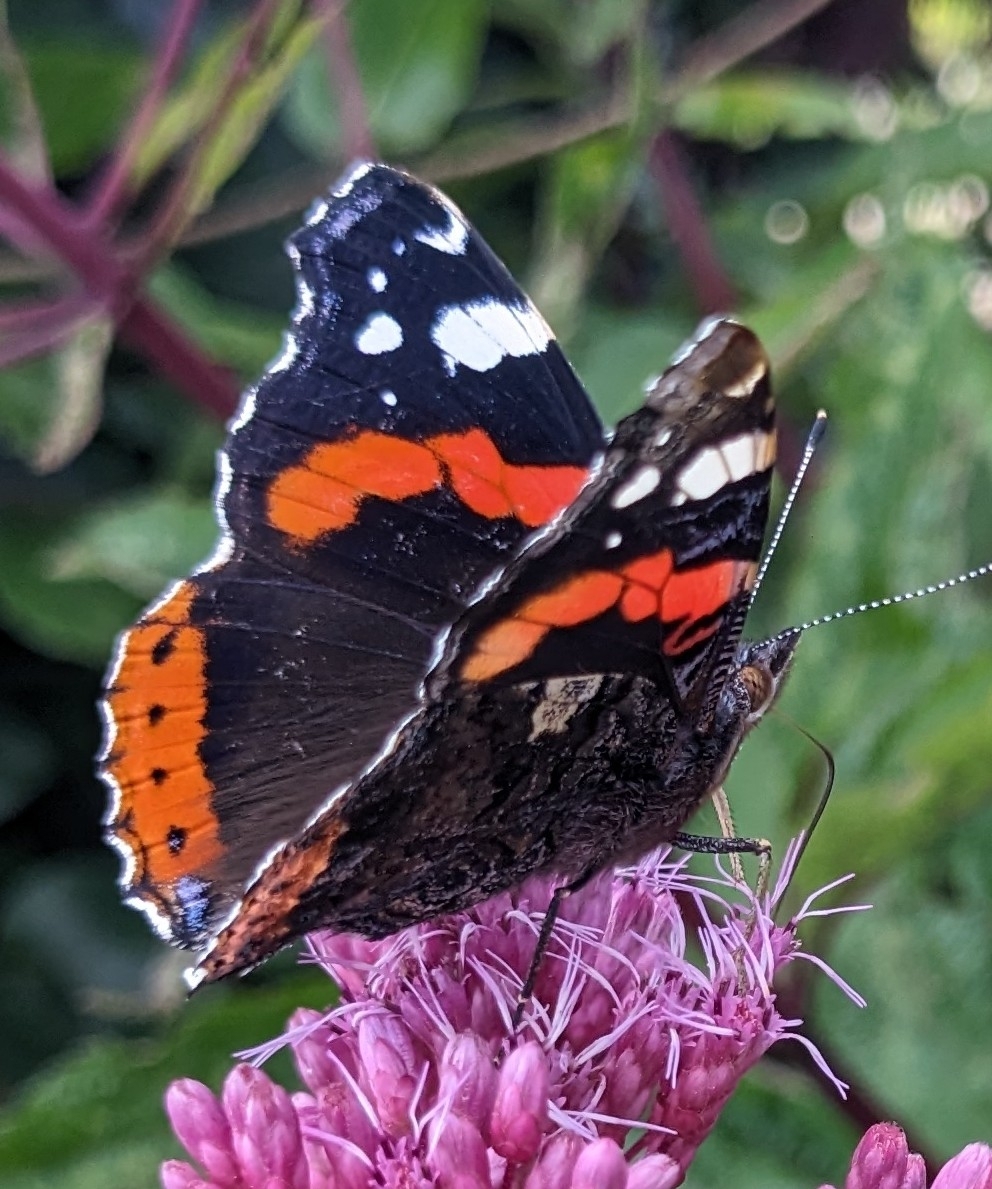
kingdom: Animalia
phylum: Arthropoda
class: Insecta
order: Lepidoptera
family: Nymphalidae
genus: Vanessa
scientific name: Vanessa atalanta
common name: Red admiral
